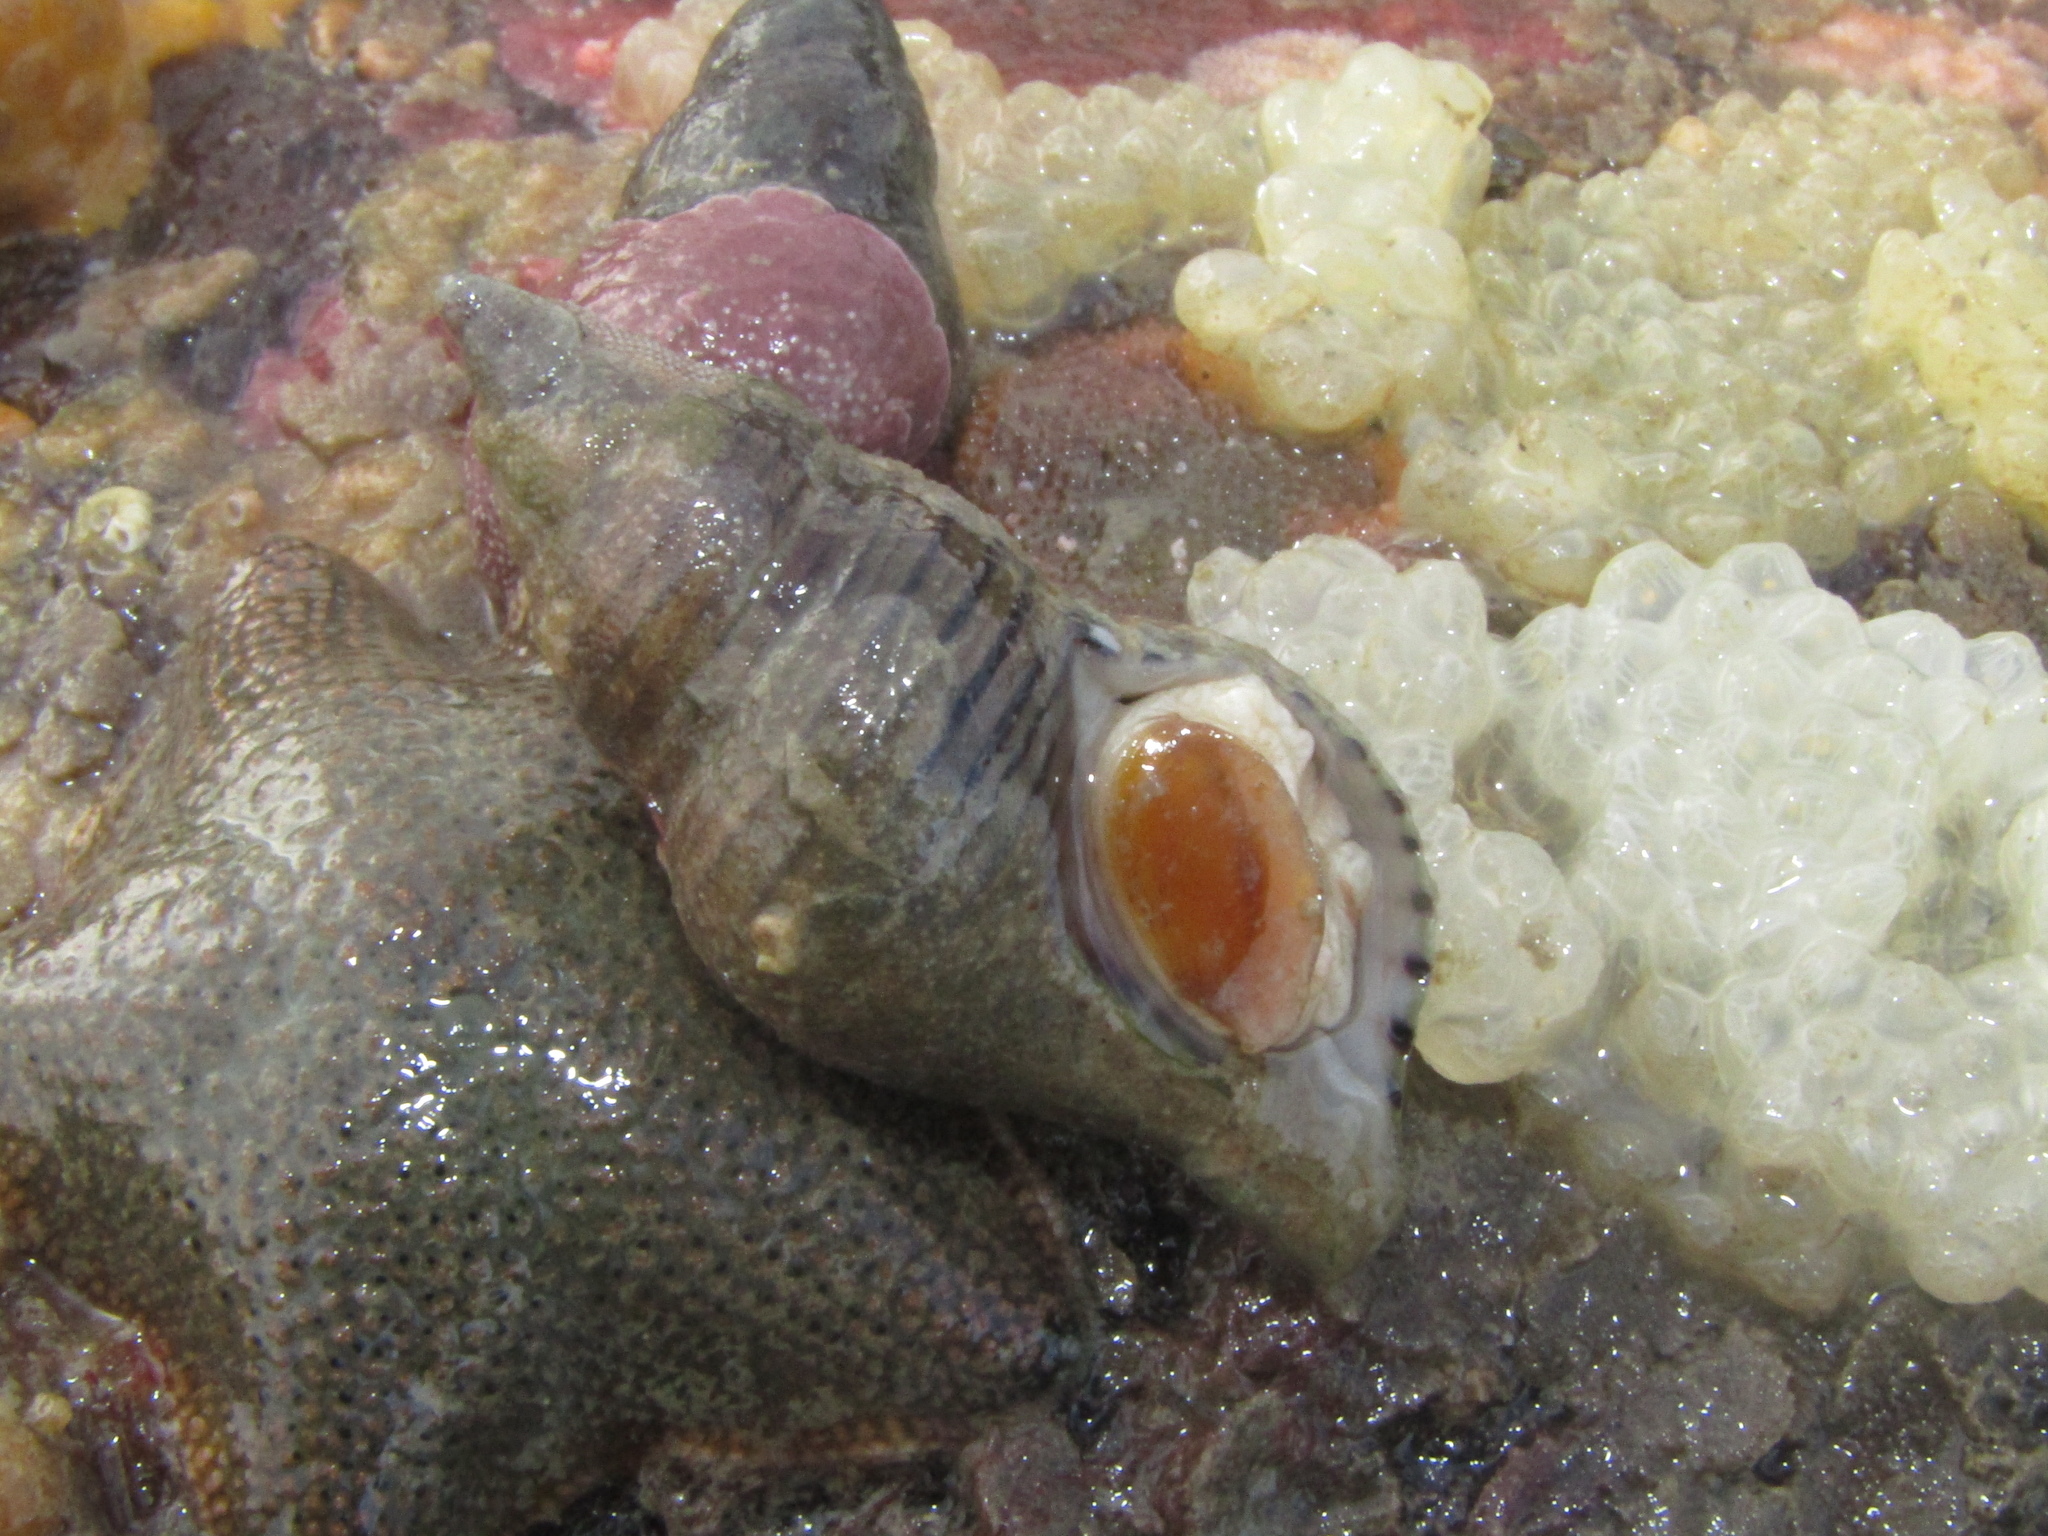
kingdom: Animalia
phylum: Mollusca
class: Gastropoda
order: Neogastropoda
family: Tudiclidae
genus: Buccinulum
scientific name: Buccinulum linea
